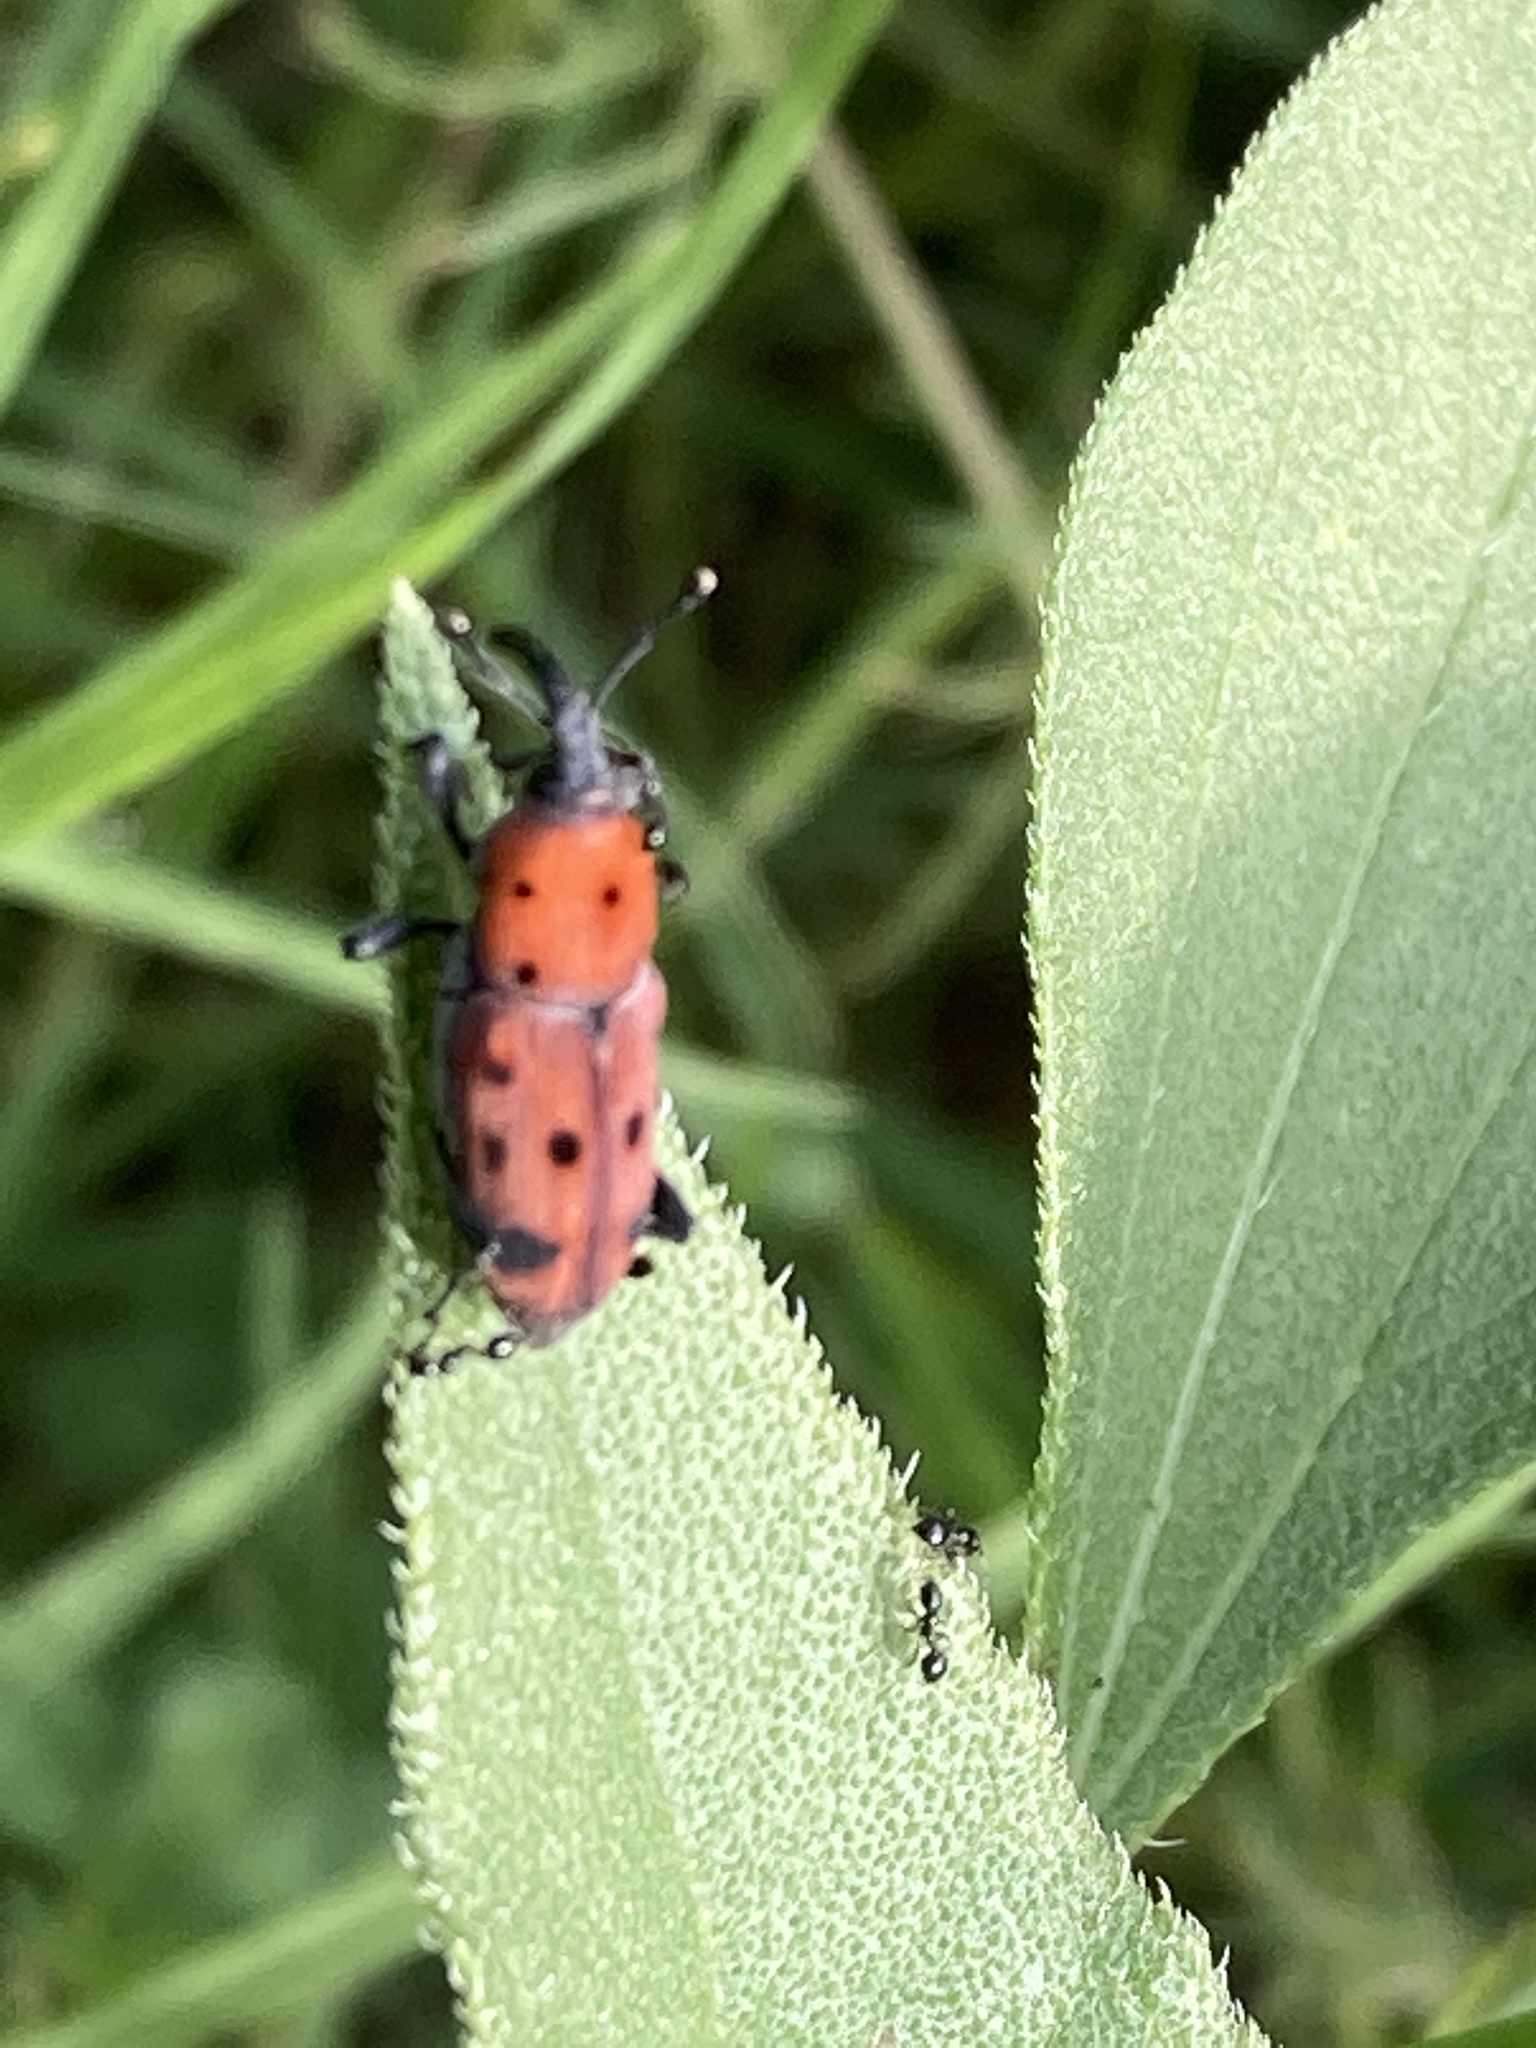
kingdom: Animalia
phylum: Arthropoda
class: Insecta
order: Coleoptera
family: Dryophthoridae
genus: Rhodobaenus
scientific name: Rhodobaenus tredecimpunctatus
